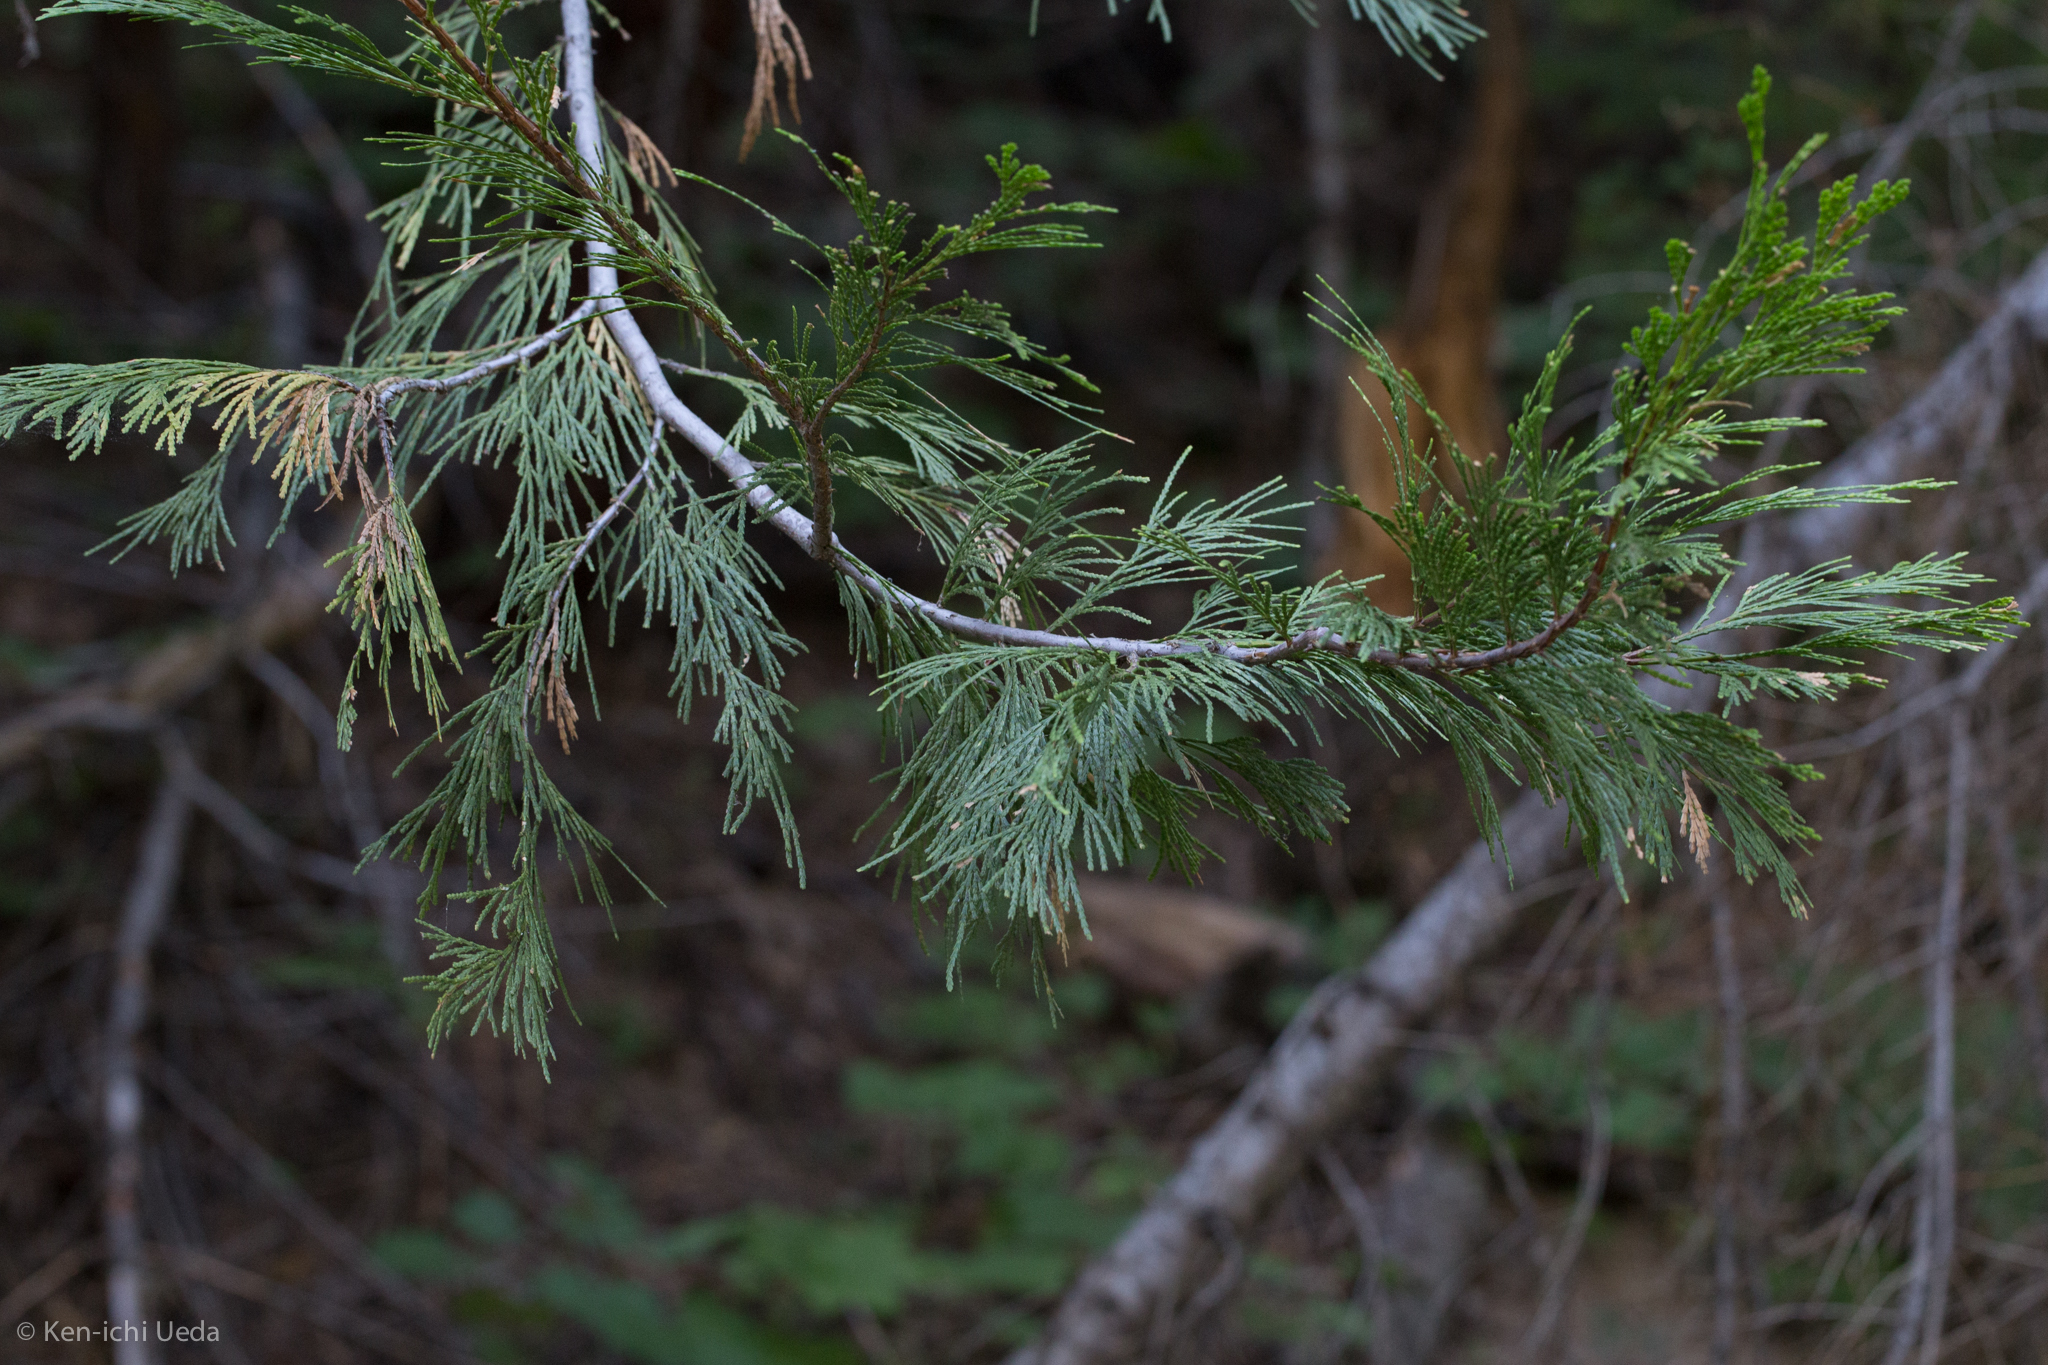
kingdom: Plantae
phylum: Tracheophyta
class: Pinopsida
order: Pinales
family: Cupressaceae
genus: Calocedrus
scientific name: Calocedrus decurrens
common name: Californian incense-cedar
